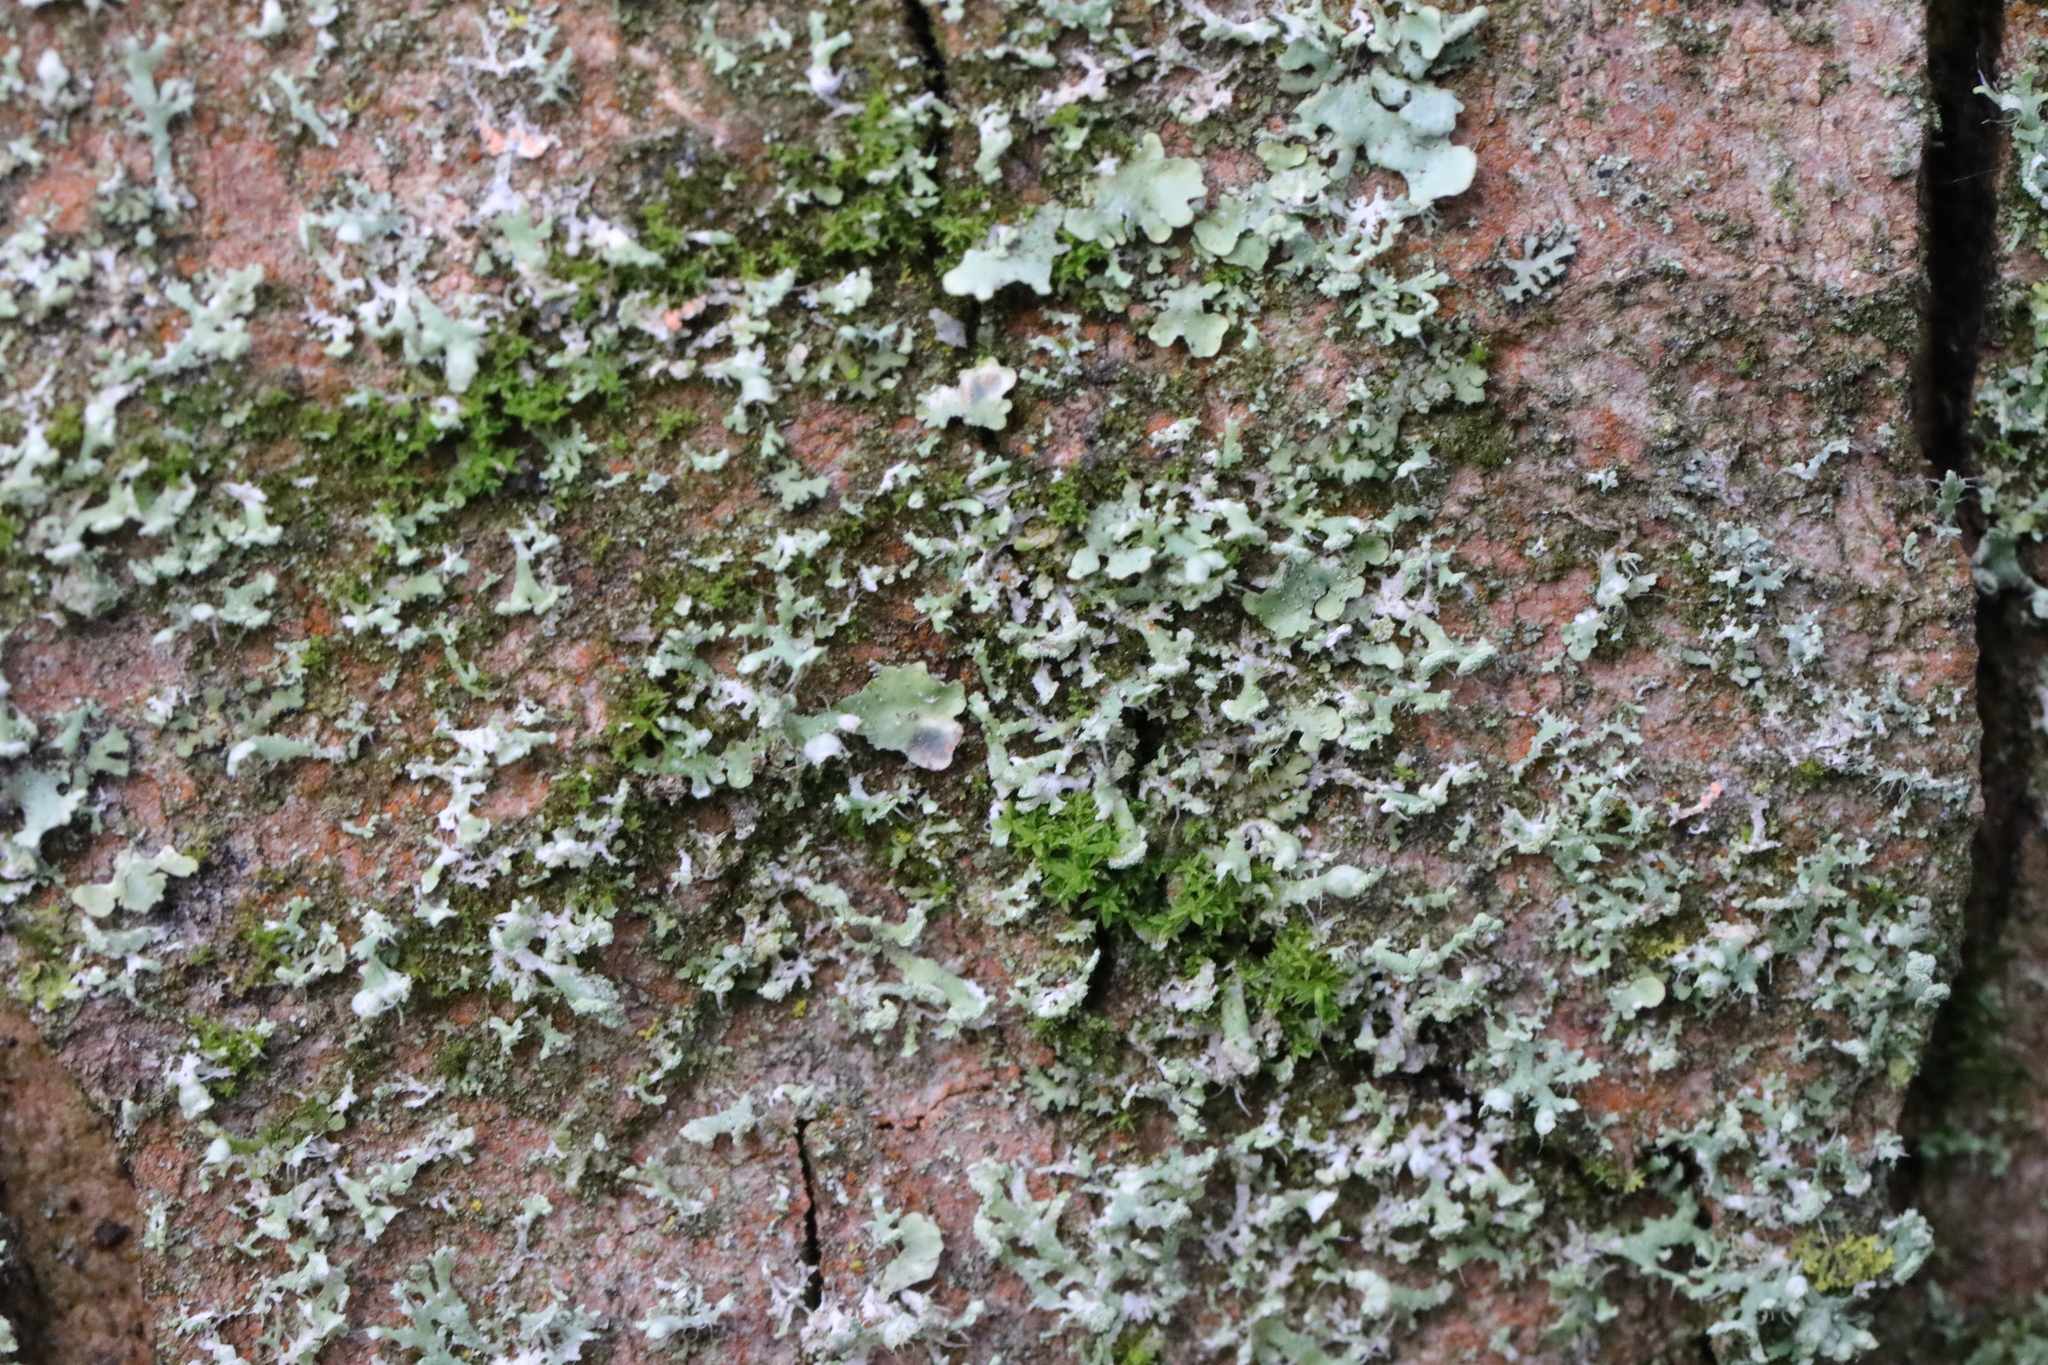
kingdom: Fungi
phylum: Ascomycota
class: Lecanoromycetes
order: Caliciales
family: Physciaceae
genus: Physcia
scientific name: Physcia tenella
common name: Fringed rosette lichen
